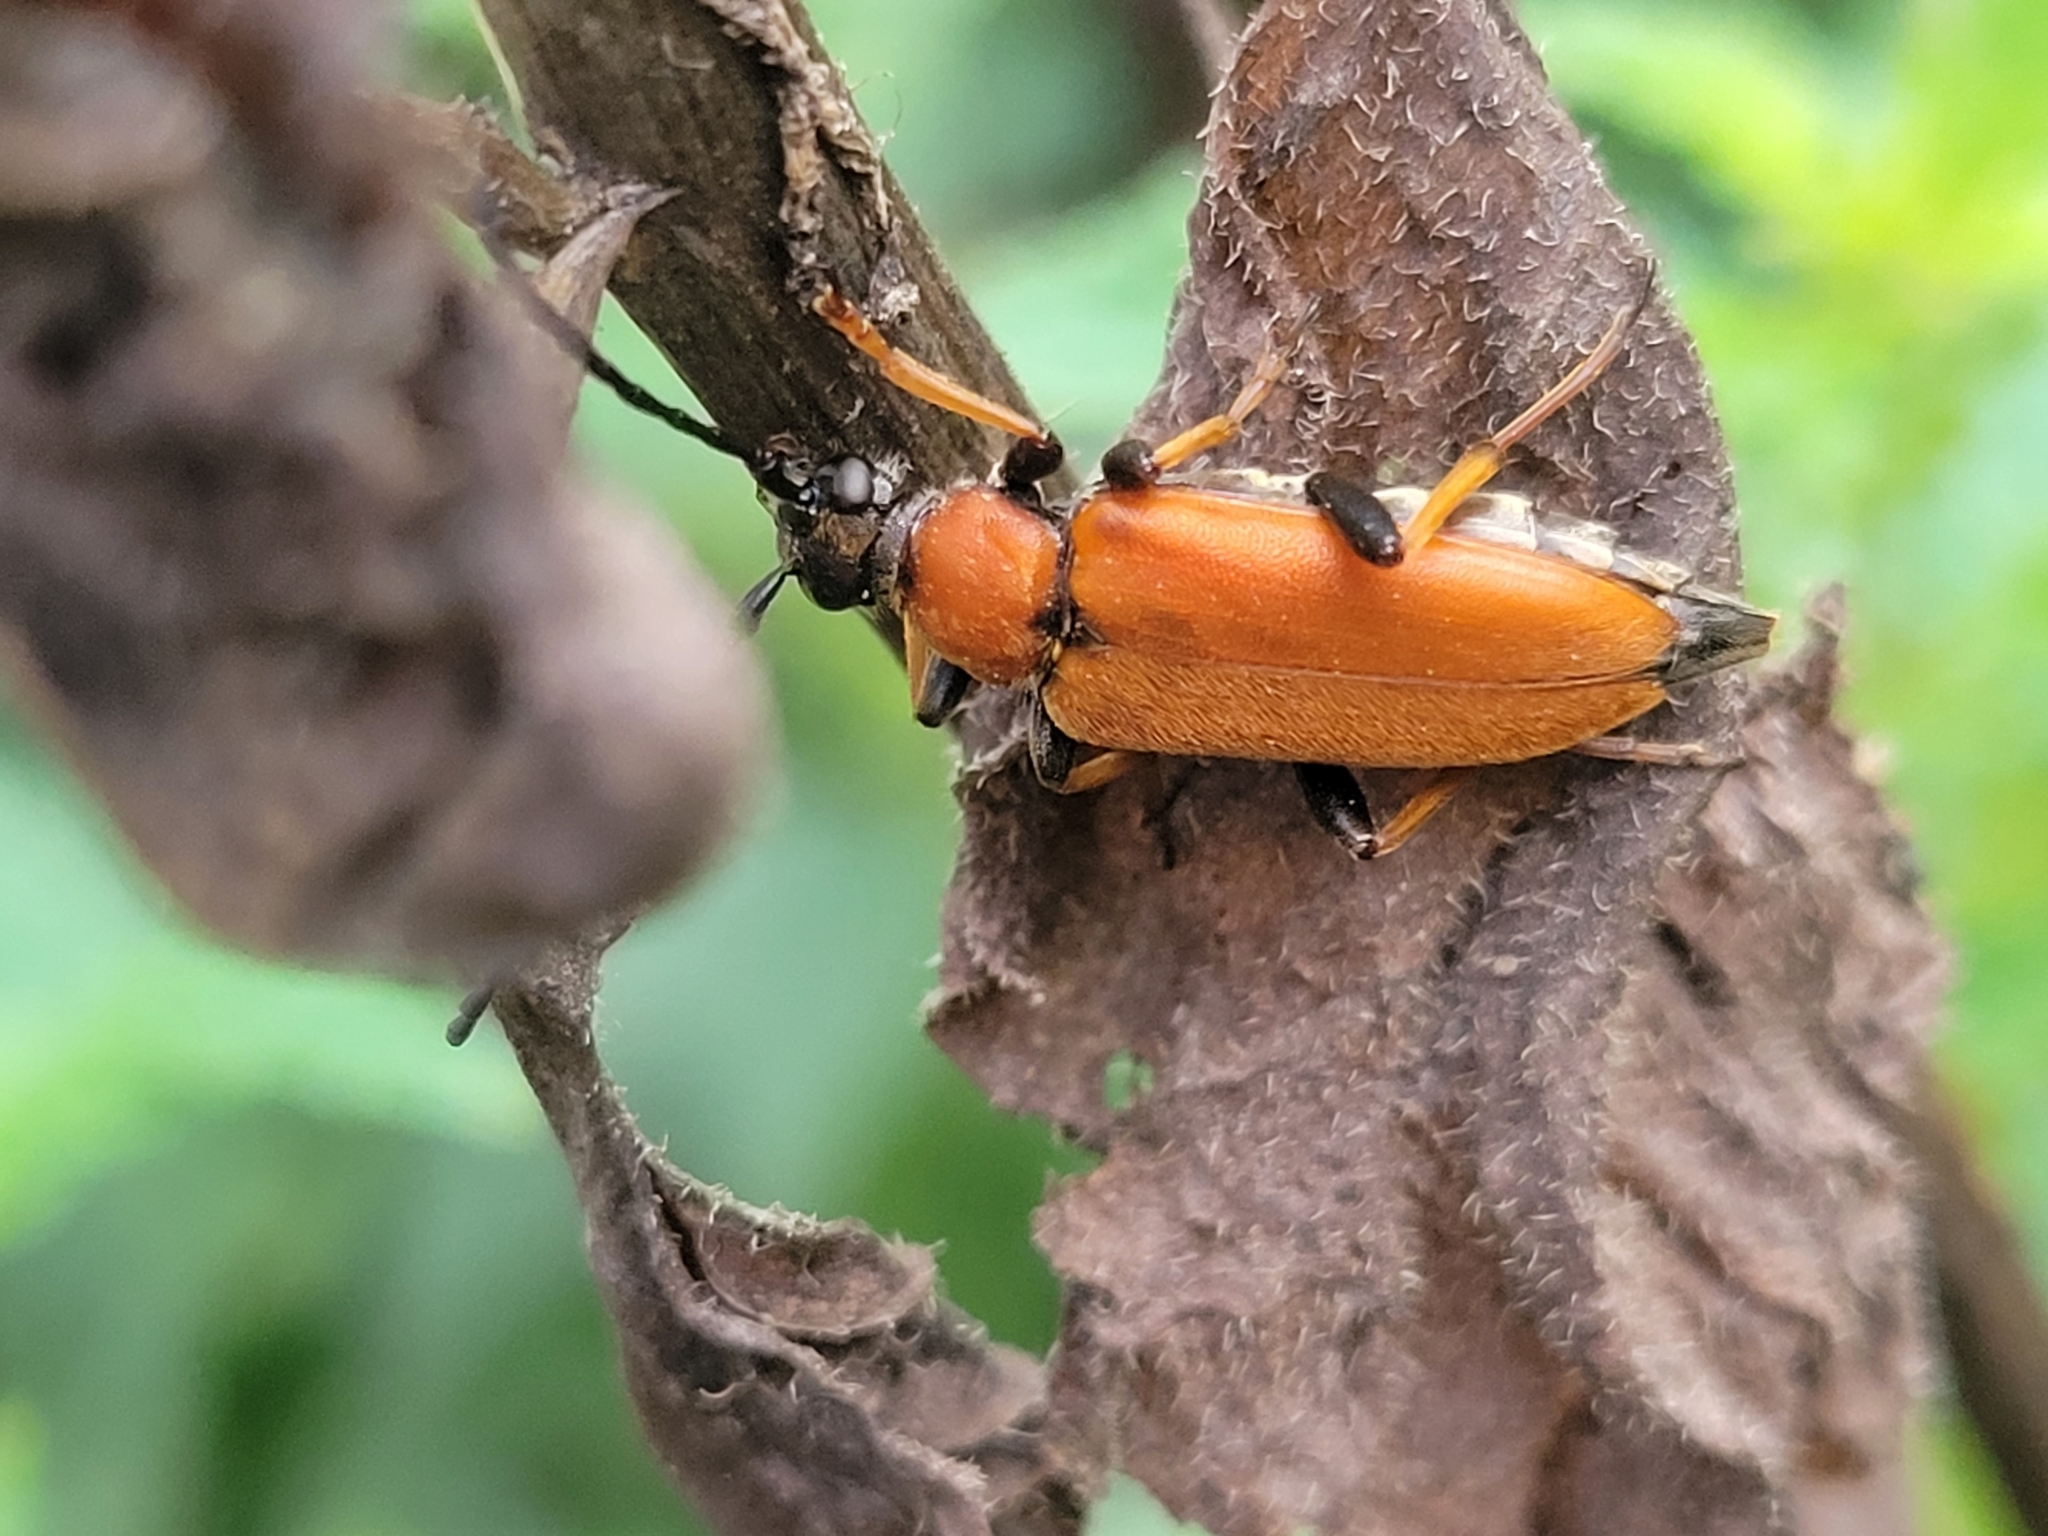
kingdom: Animalia
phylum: Arthropoda
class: Insecta
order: Coleoptera
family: Cerambycidae
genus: Stictoleptura
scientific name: Stictoleptura rubra
